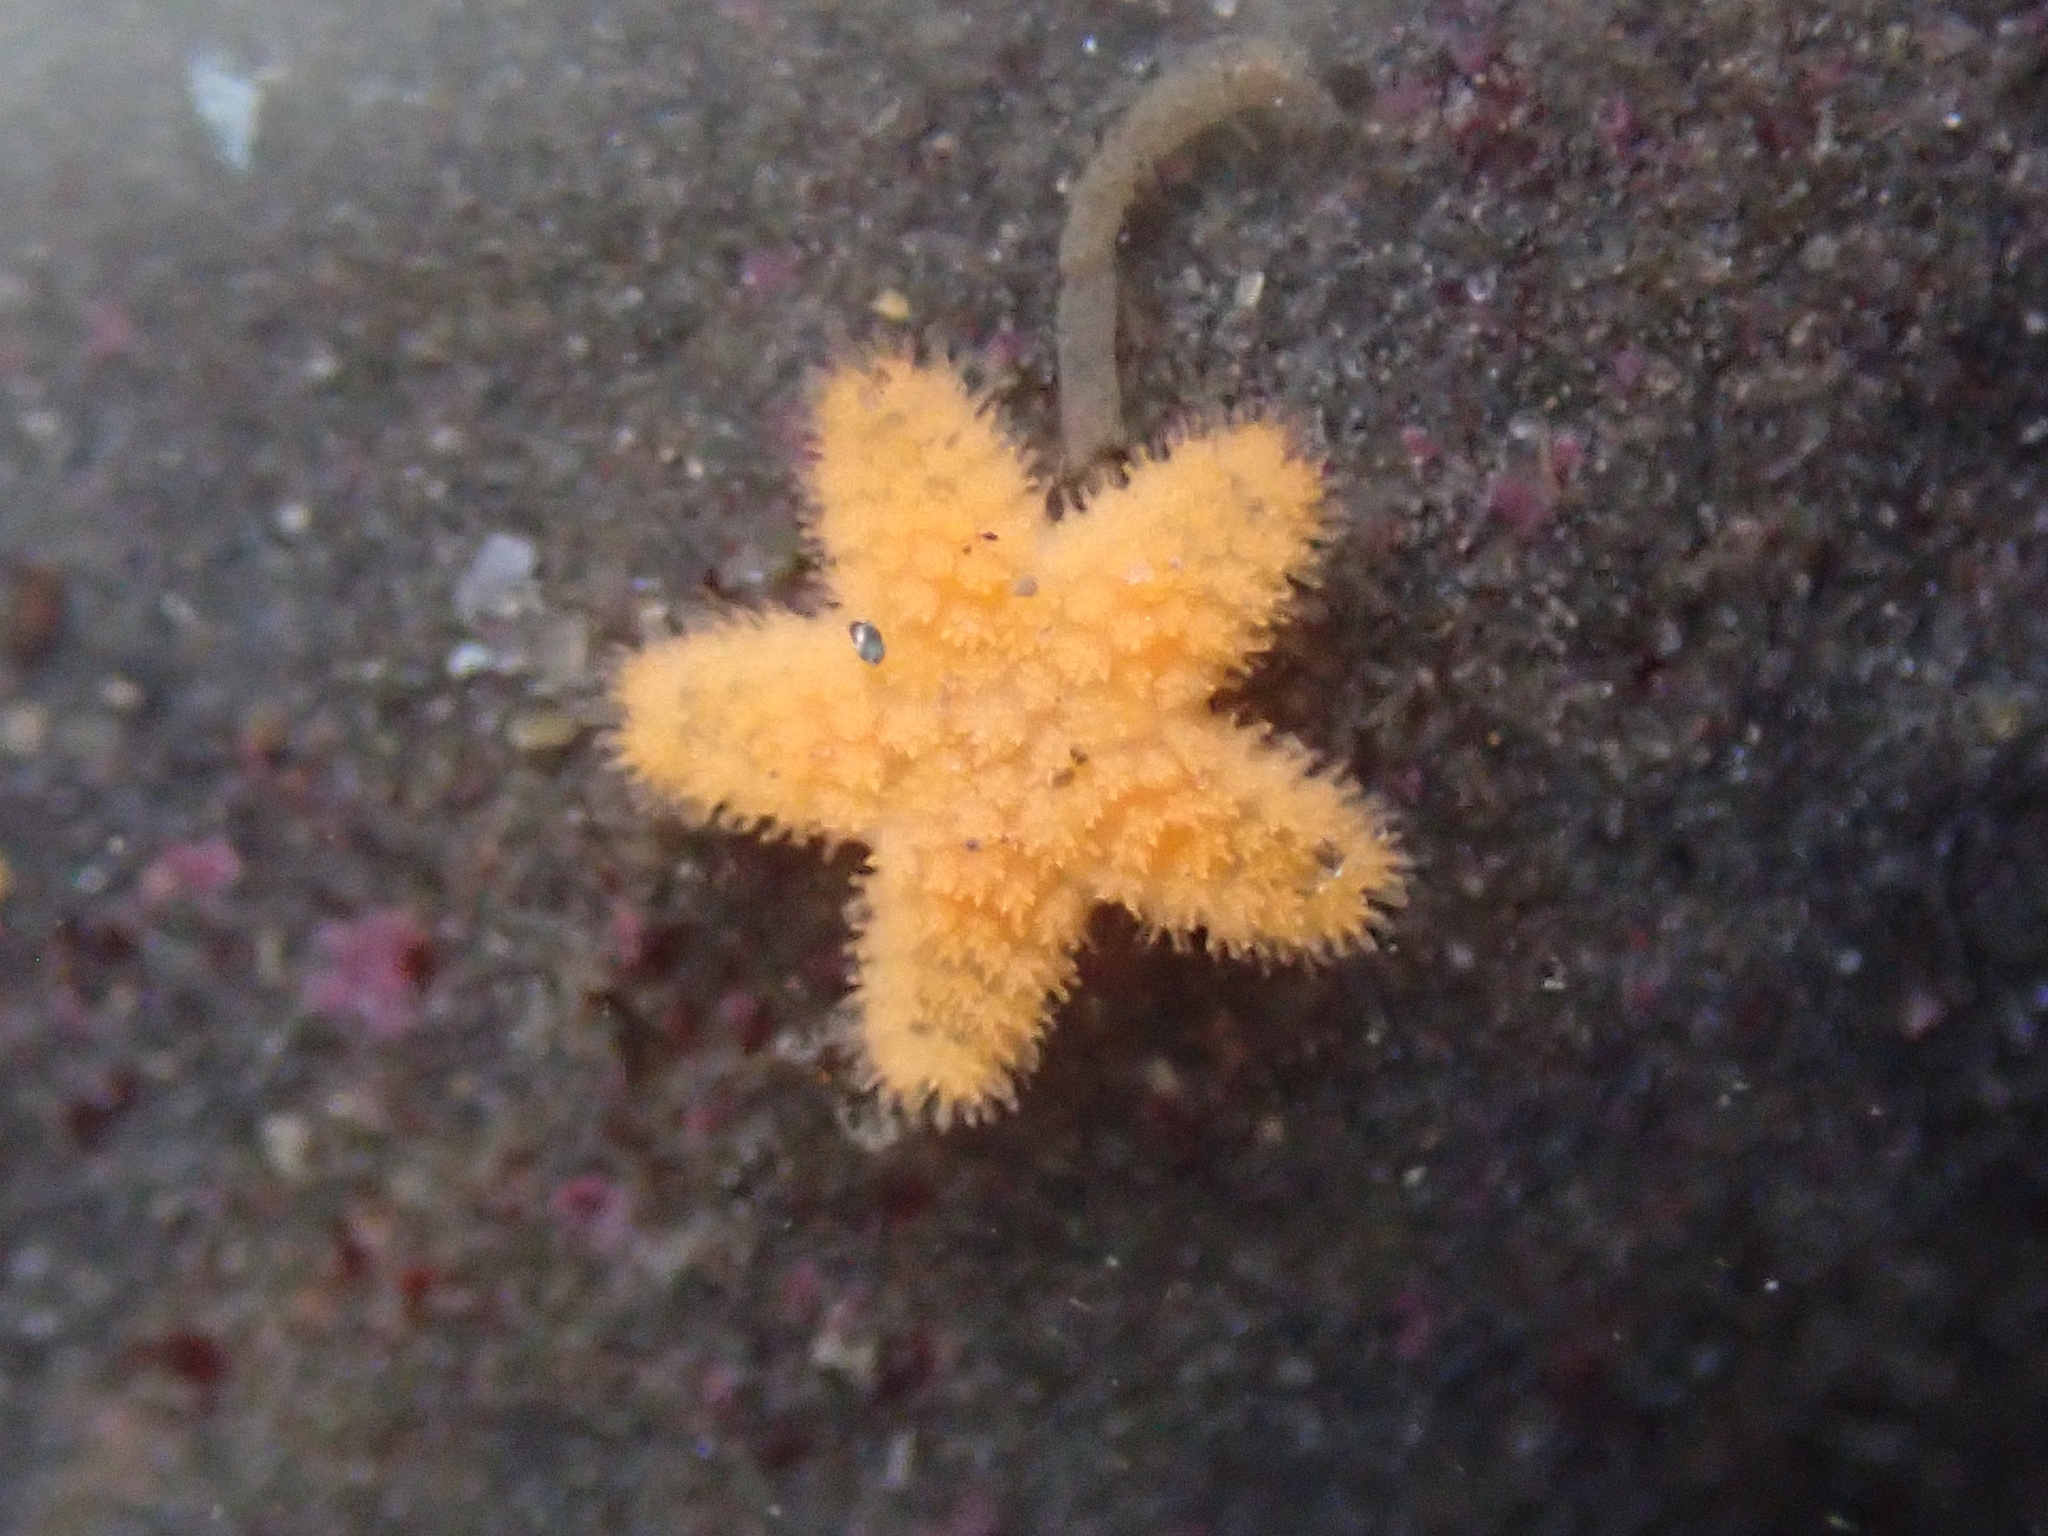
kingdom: Animalia
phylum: Echinodermata
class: Asteroidea
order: Forcipulatida
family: Asteriidae
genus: Pisaster
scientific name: Pisaster ochraceus
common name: Ochre stars
